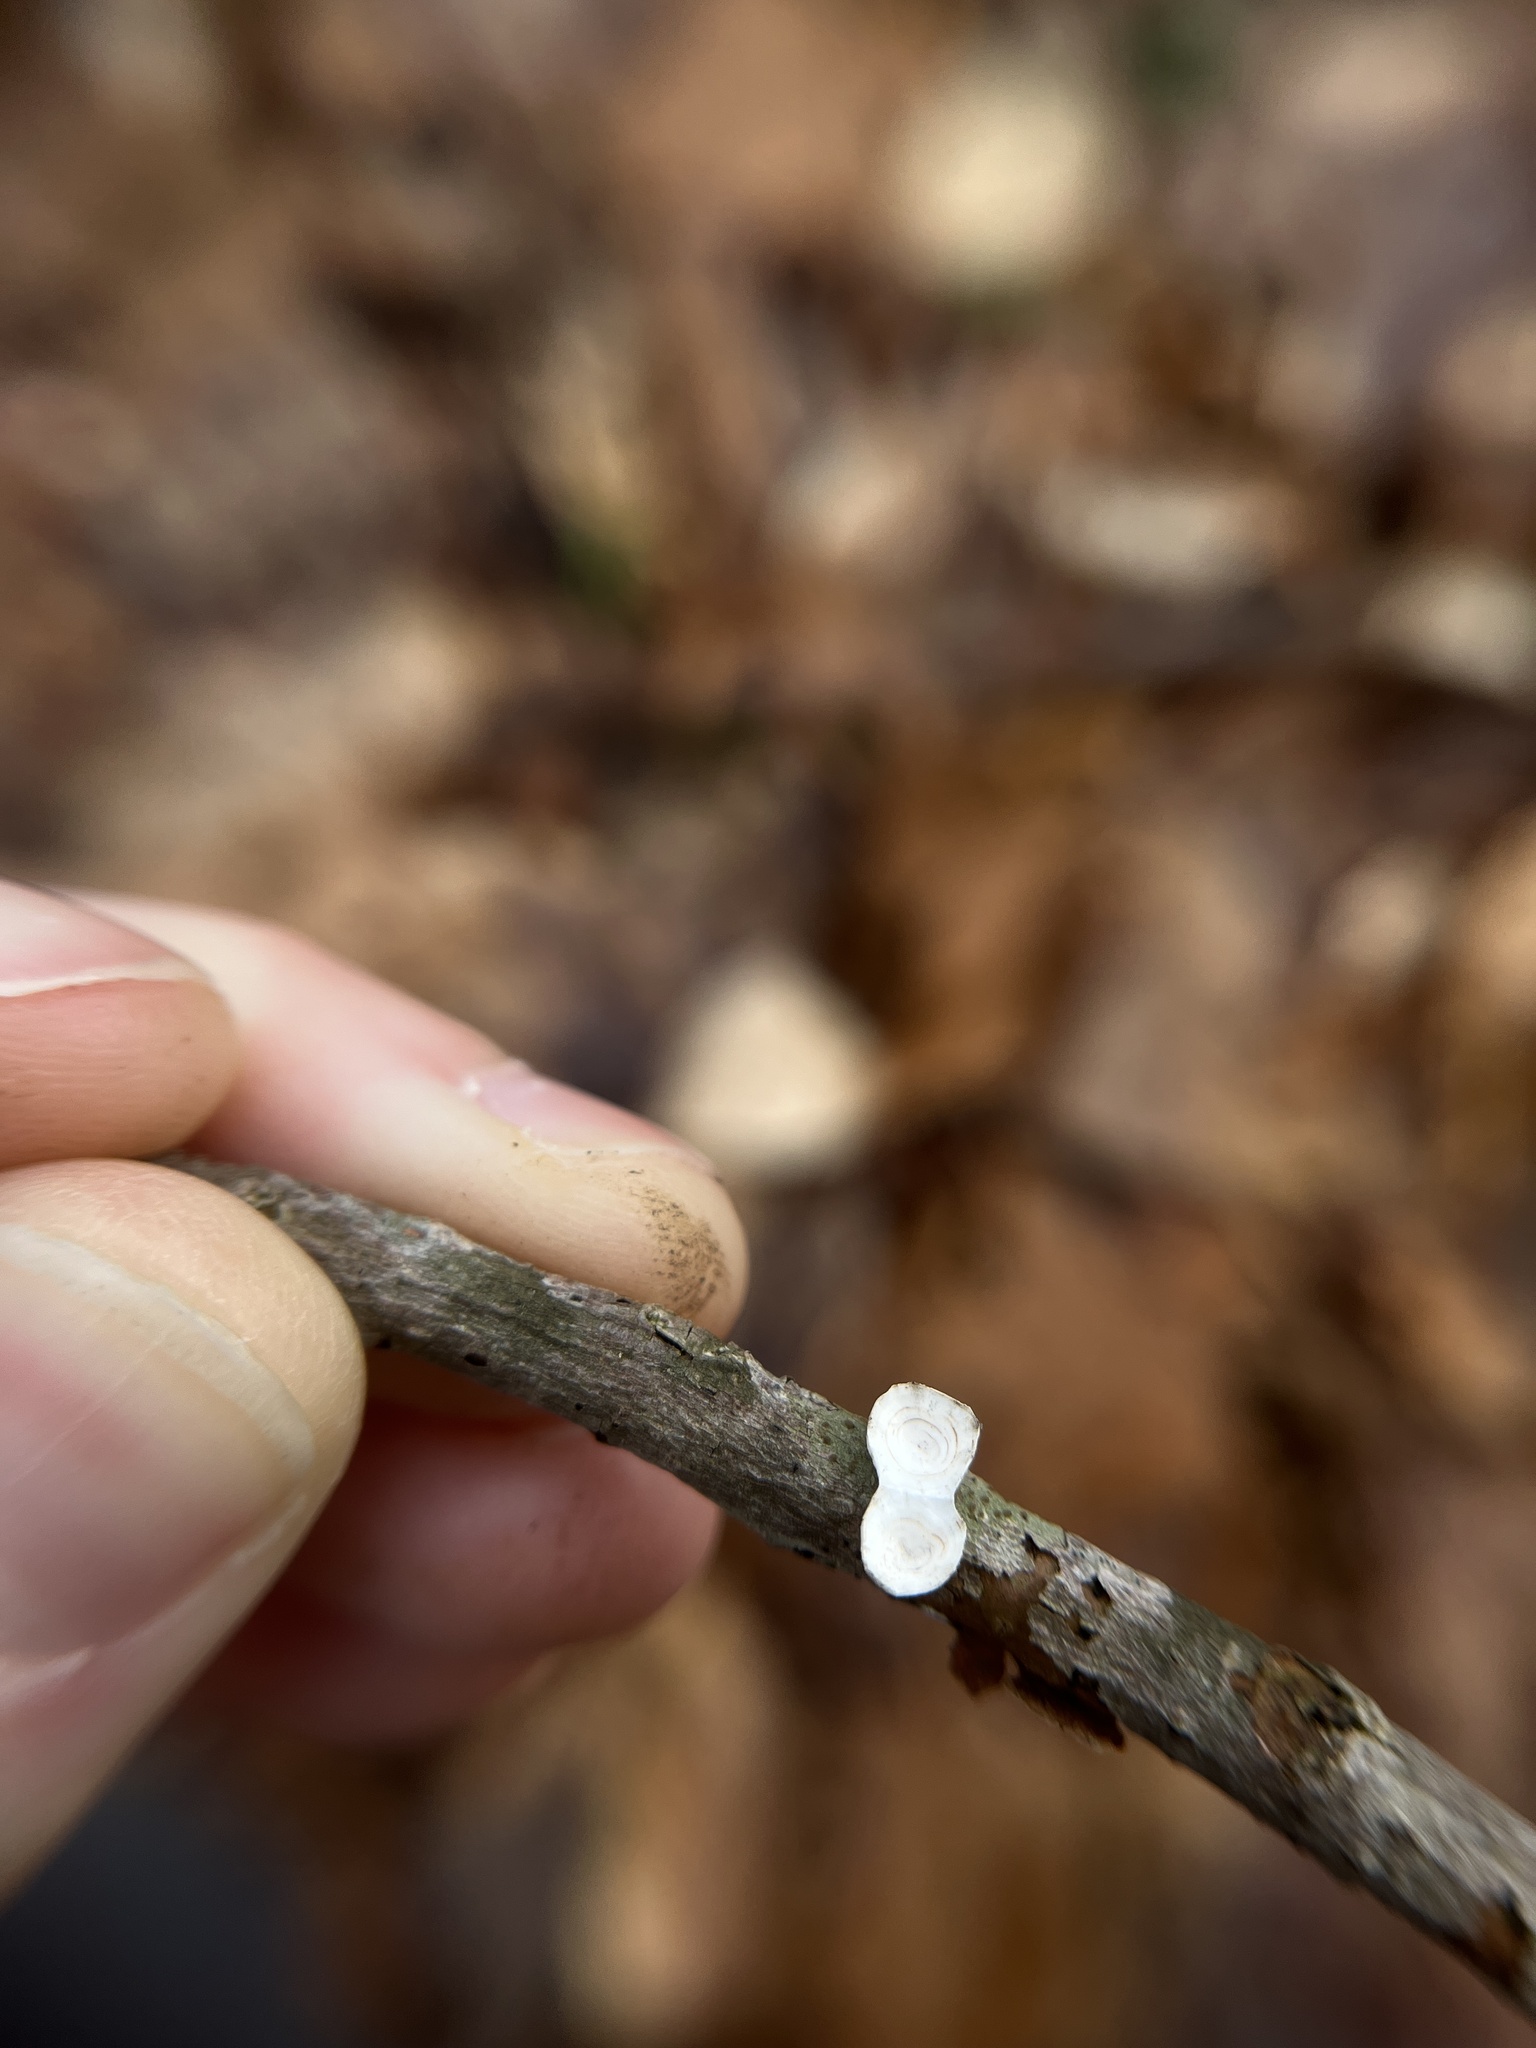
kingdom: Fungi
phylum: Basidiomycota
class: Agaricomycetes
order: Polyporales
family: Polyporaceae
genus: Poronidulus
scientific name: Poronidulus conchifer
